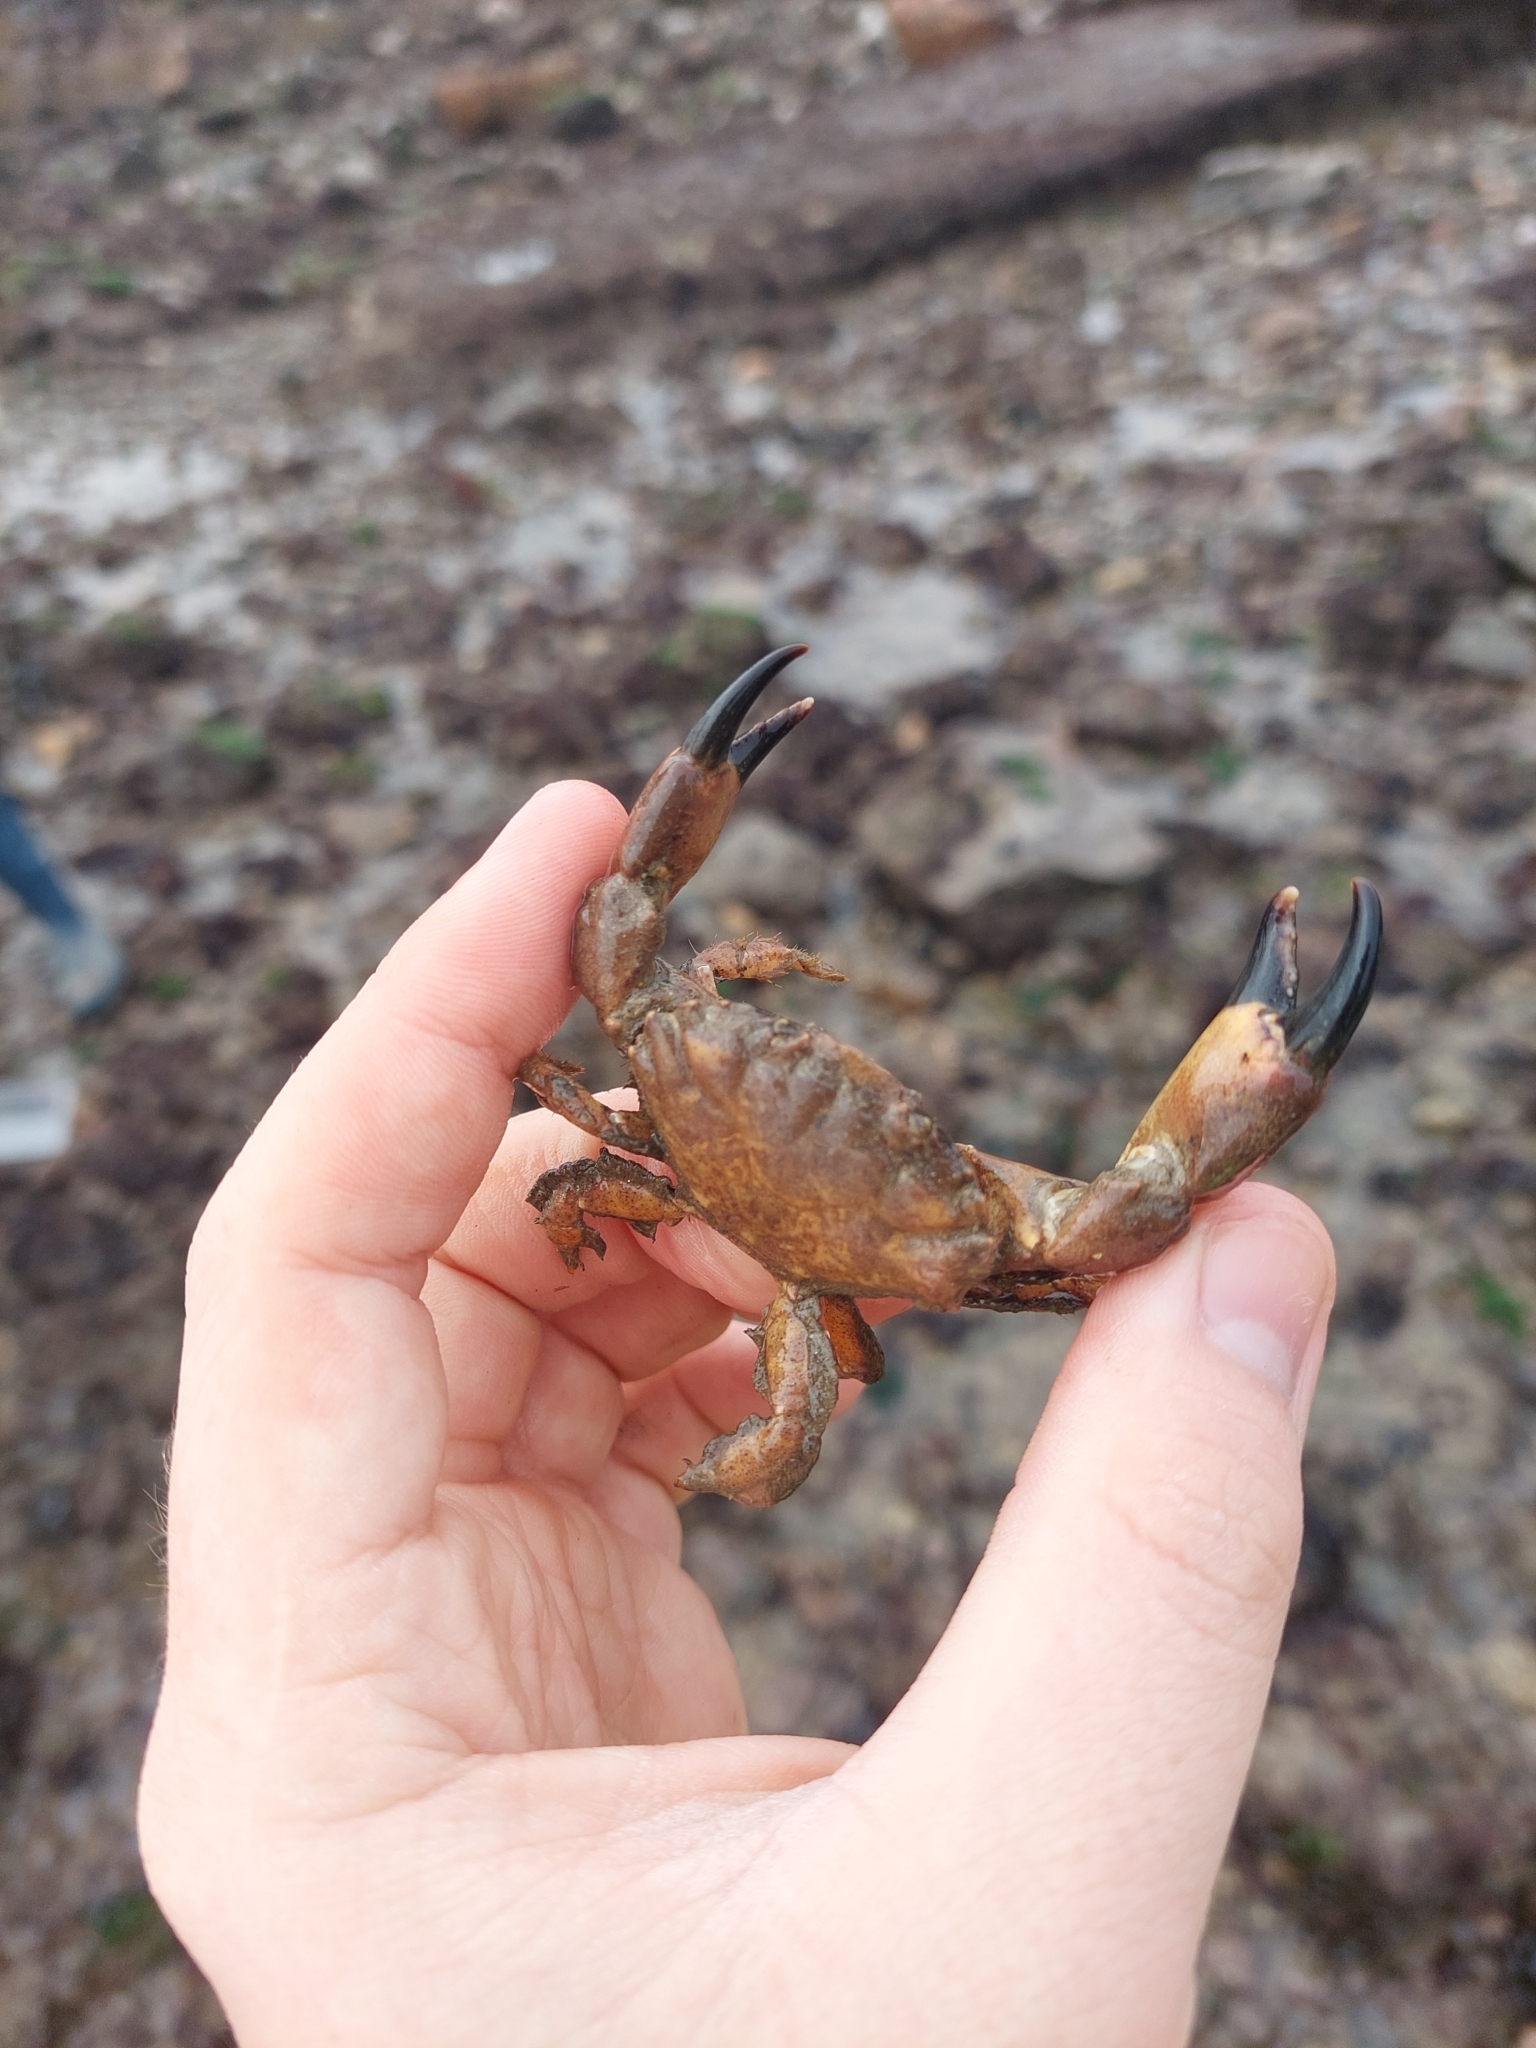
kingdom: Animalia
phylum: Arthropoda
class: Malacostraca
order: Decapoda
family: Xanthidae
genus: Xantho
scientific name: Xantho pilipes
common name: Risso's crab
